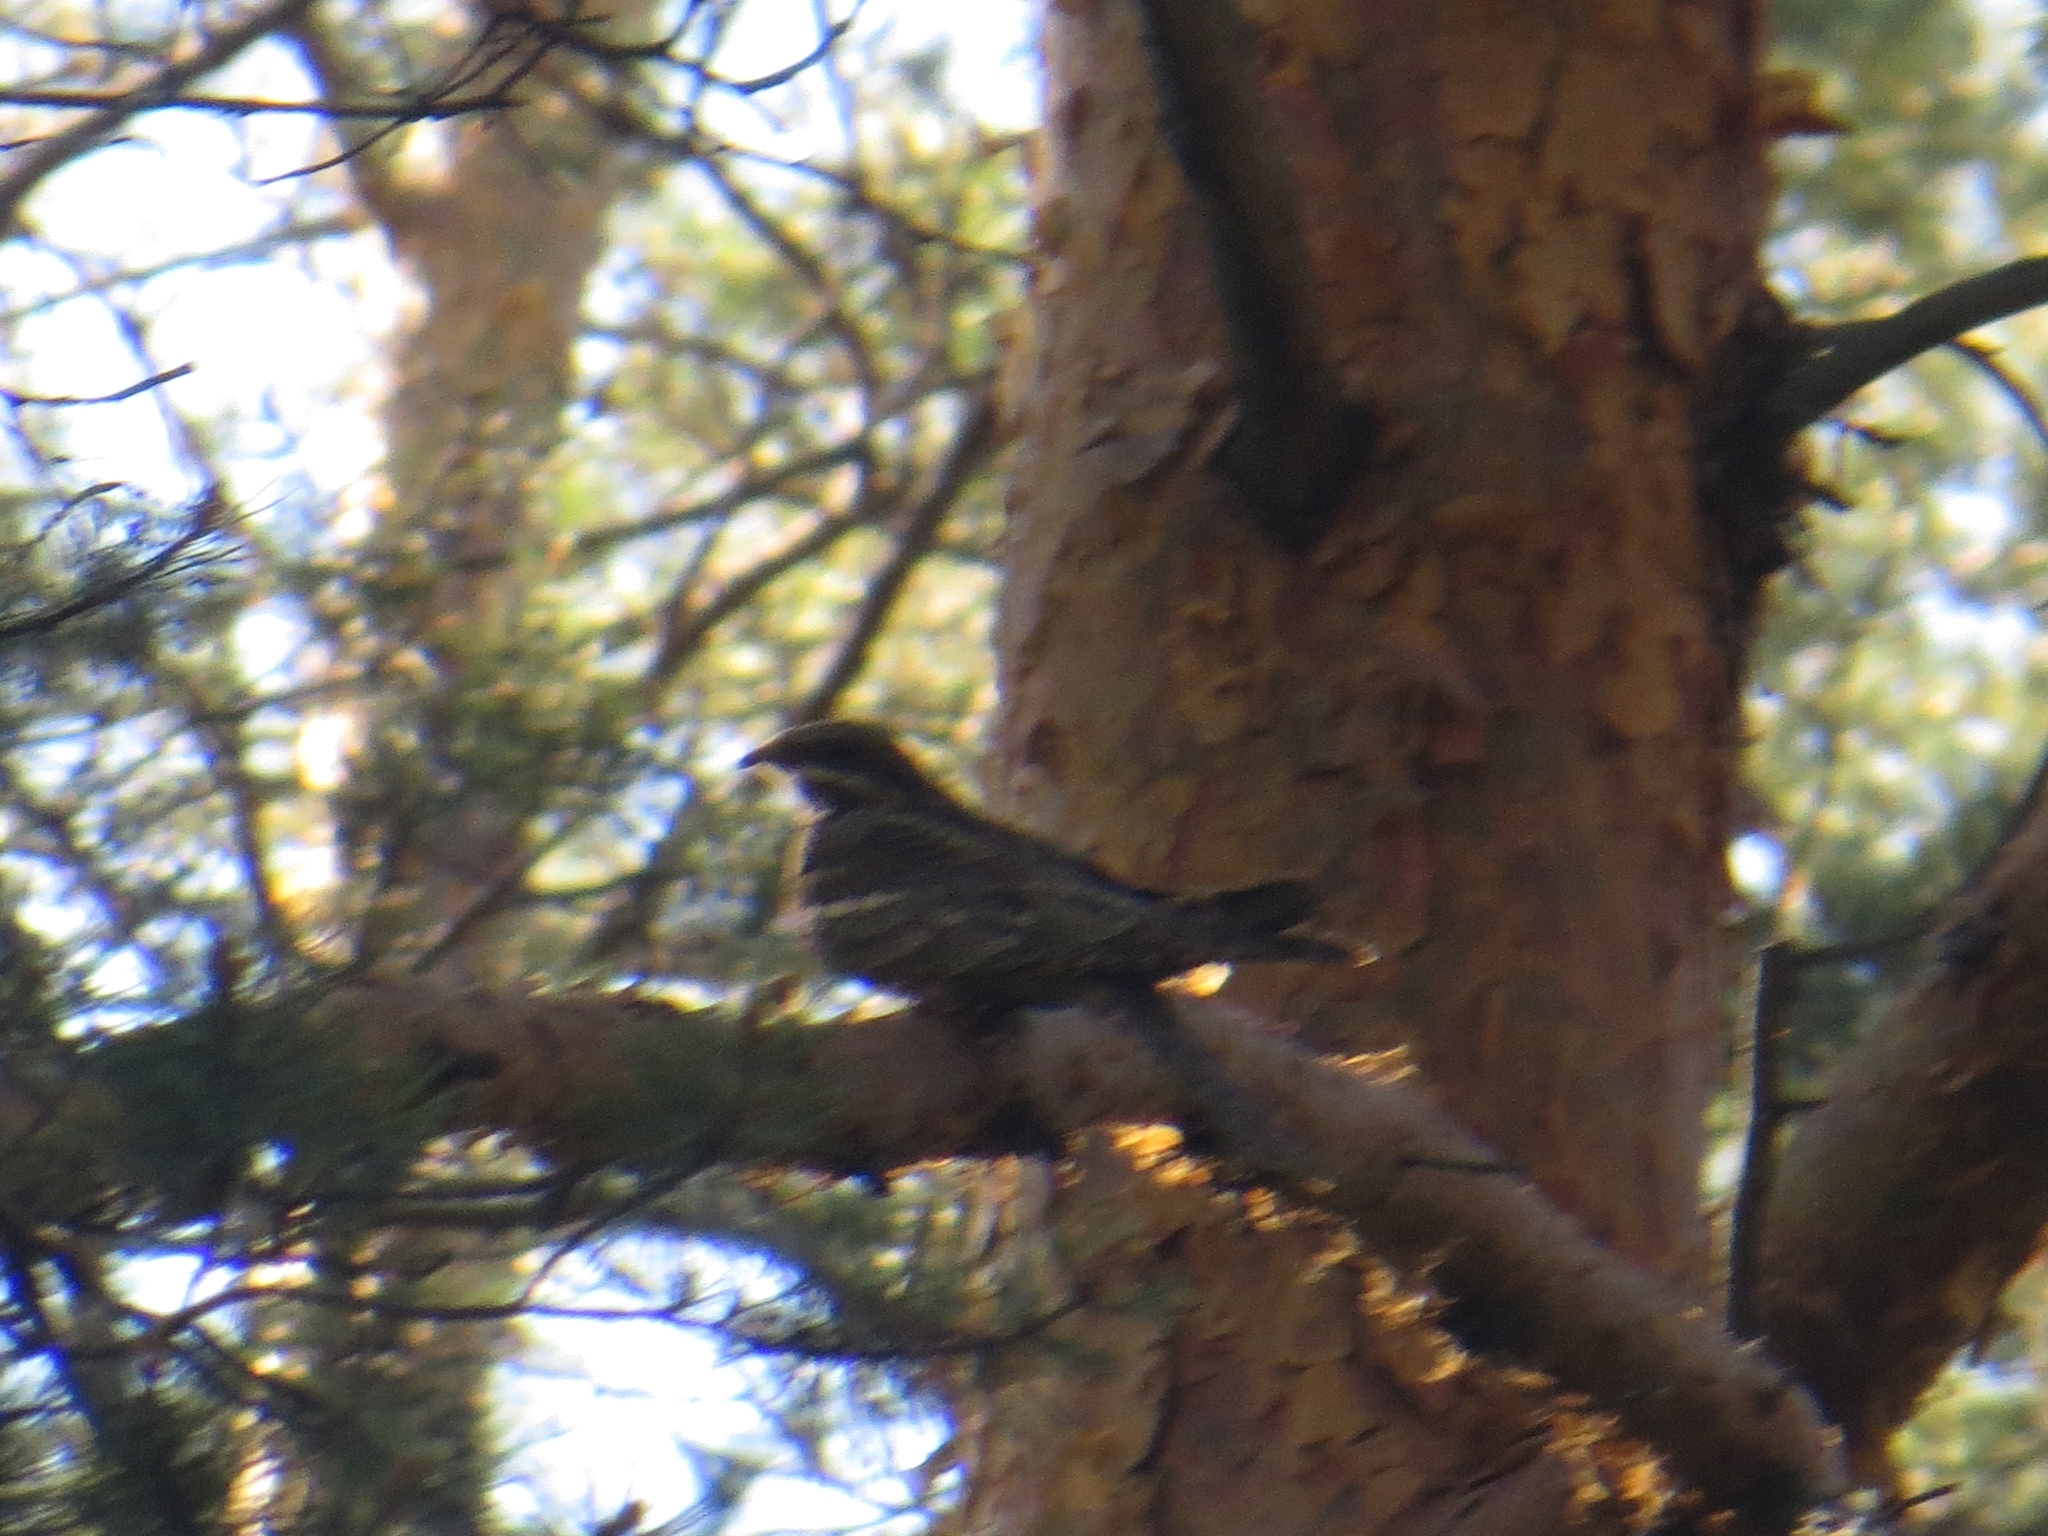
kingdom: Animalia
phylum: Chordata
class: Aves
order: Caprimulgiformes
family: Caprimulgidae
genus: Caprimulgus
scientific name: Caprimulgus europaeus
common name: European nightjar
